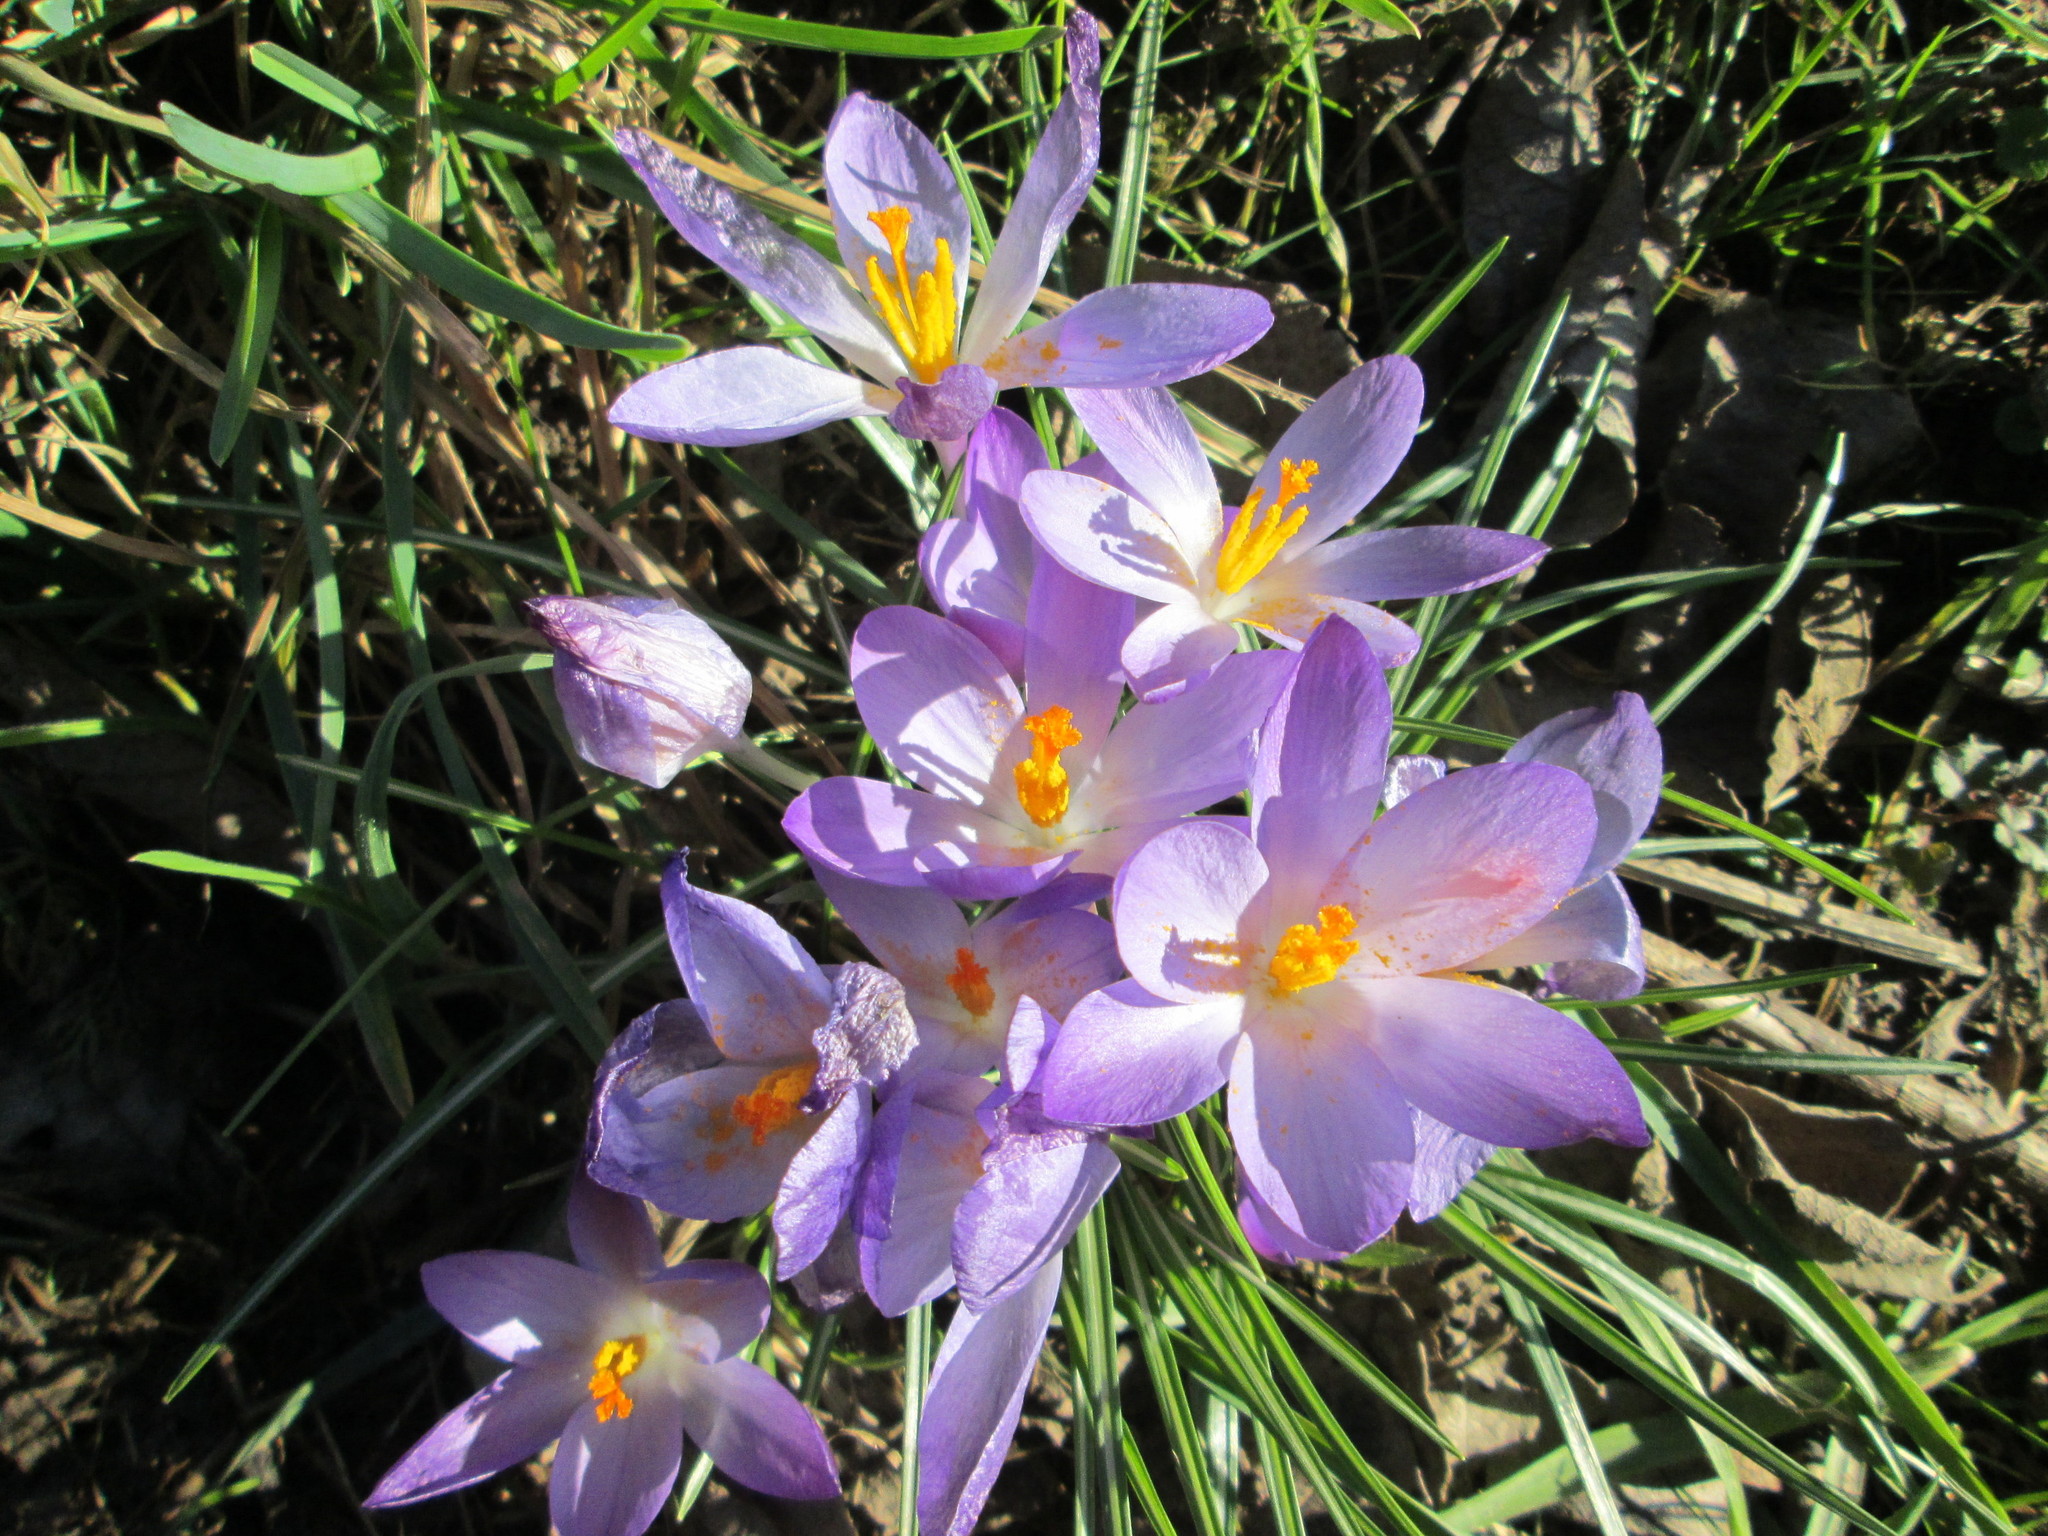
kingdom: Plantae
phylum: Tracheophyta
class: Liliopsida
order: Asparagales
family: Iridaceae
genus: Crocus
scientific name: Crocus tommasinianus
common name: Early crocus
